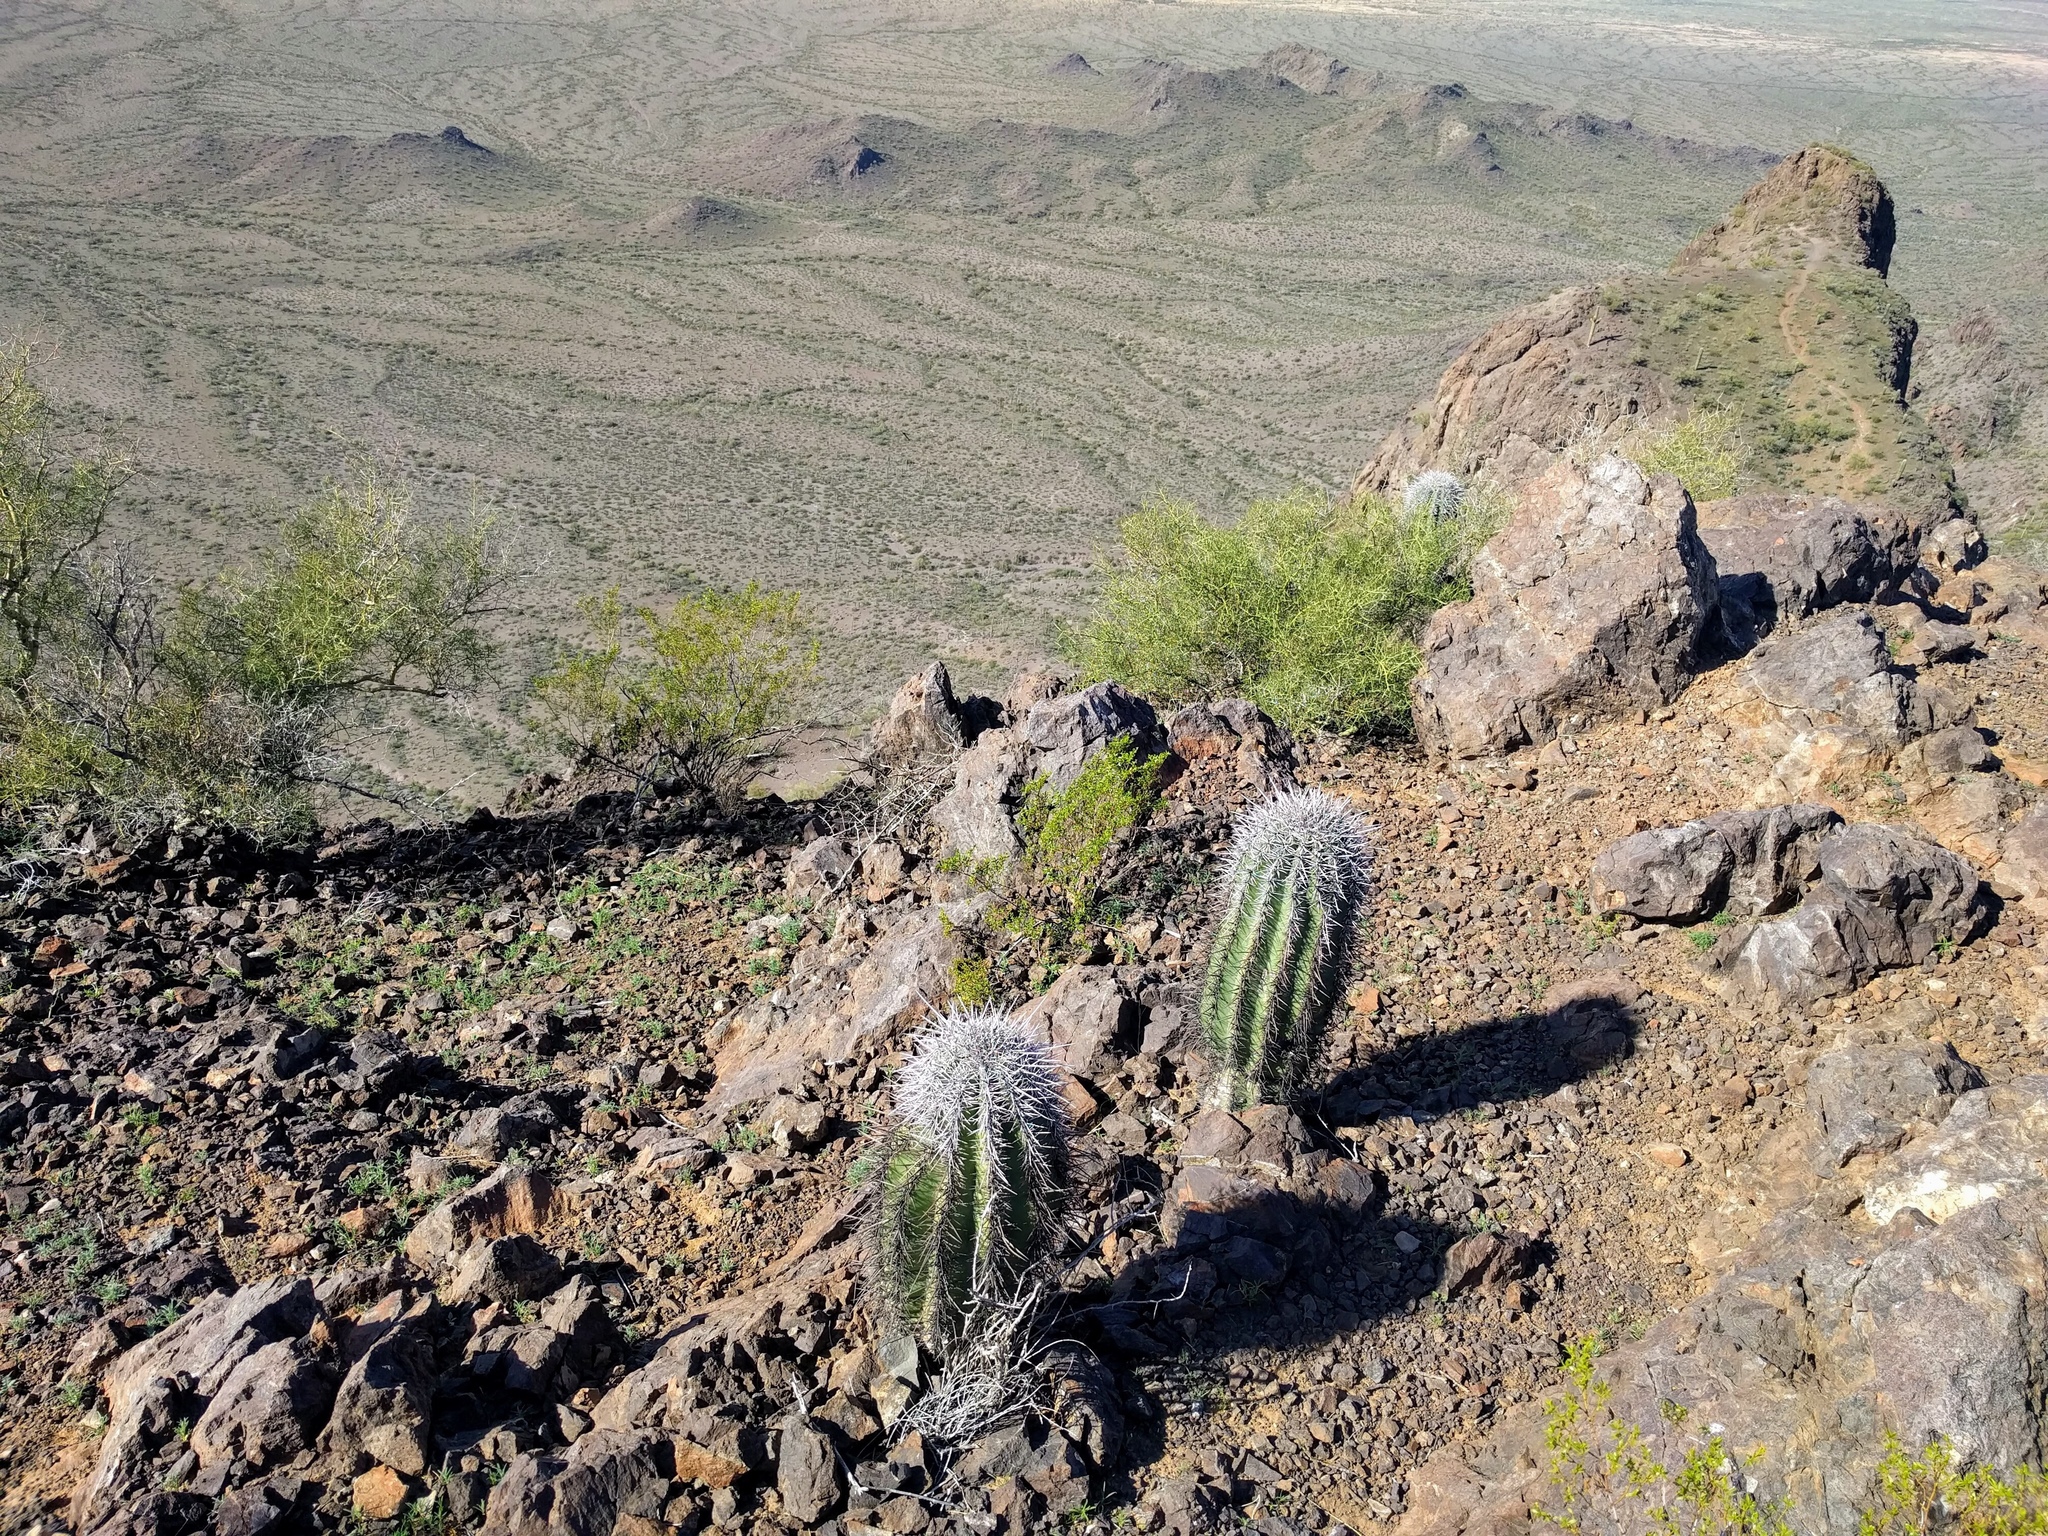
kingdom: Plantae
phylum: Tracheophyta
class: Magnoliopsida
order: Caryophyllales
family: Cactaceae
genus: Carnegiea
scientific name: Carnegiea gigantea
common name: Saguaro
